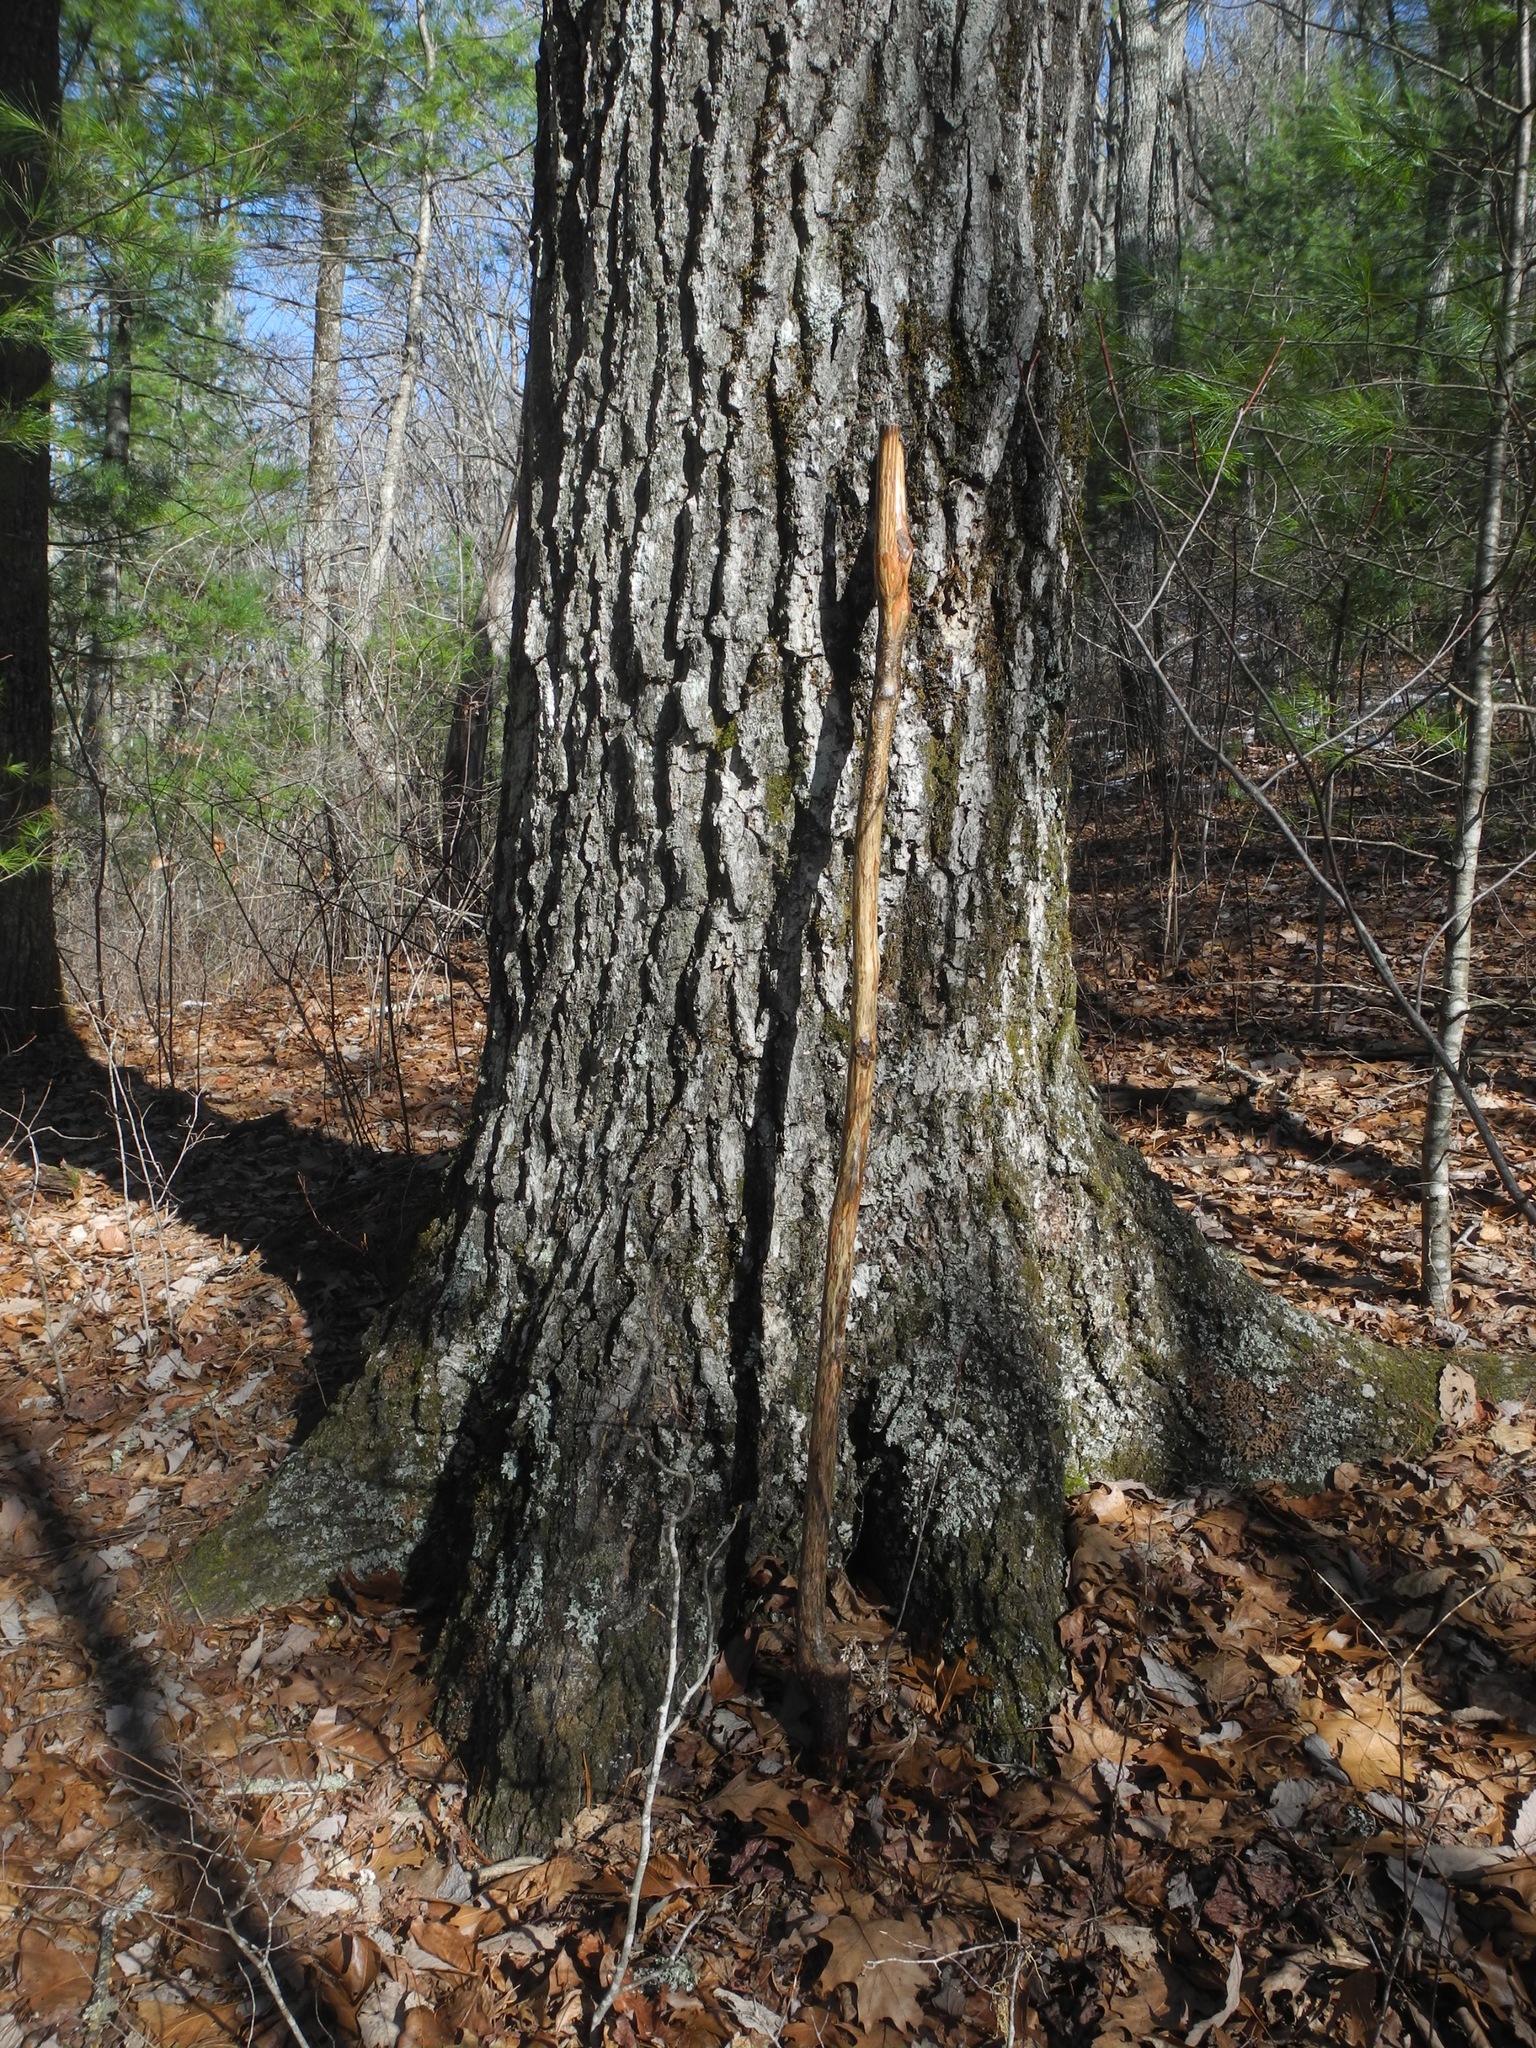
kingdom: Plantae
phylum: Tracheophyta
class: Magnoliopsida
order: Fagales
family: Fagaceae
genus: Quercus
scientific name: Quercus rubra
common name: Red oak
